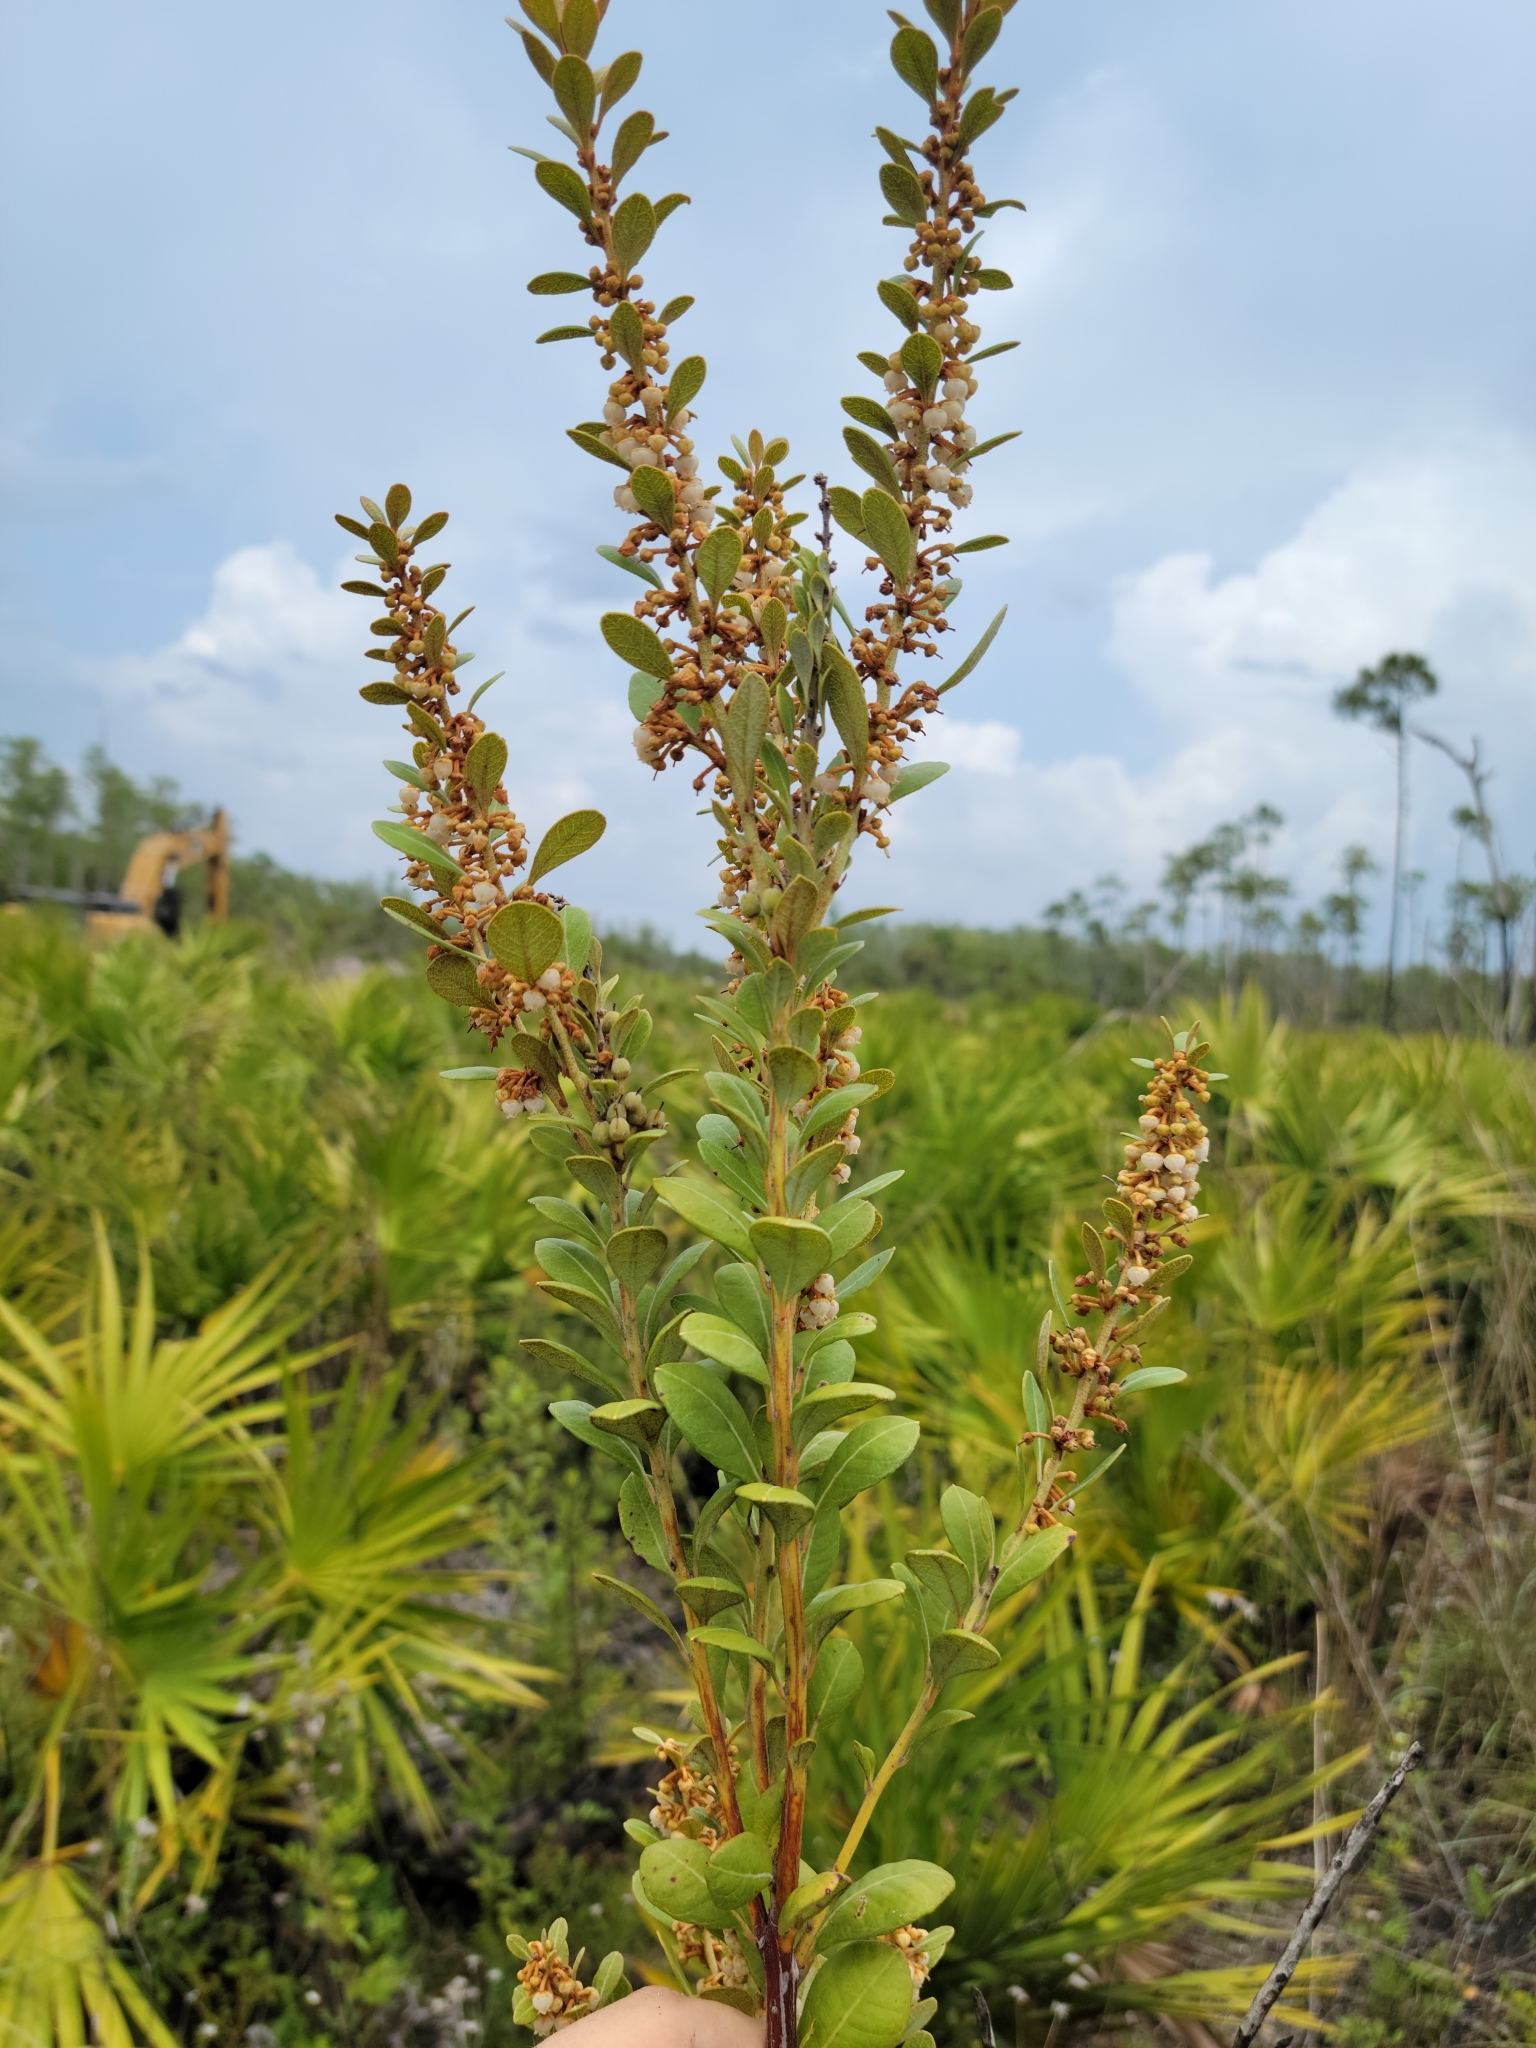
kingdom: Plantae
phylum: Tracheophyta
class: Magnoliopsida
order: Ericales
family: Ericaceae
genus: Lyonia
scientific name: Lyonia fruticosa
